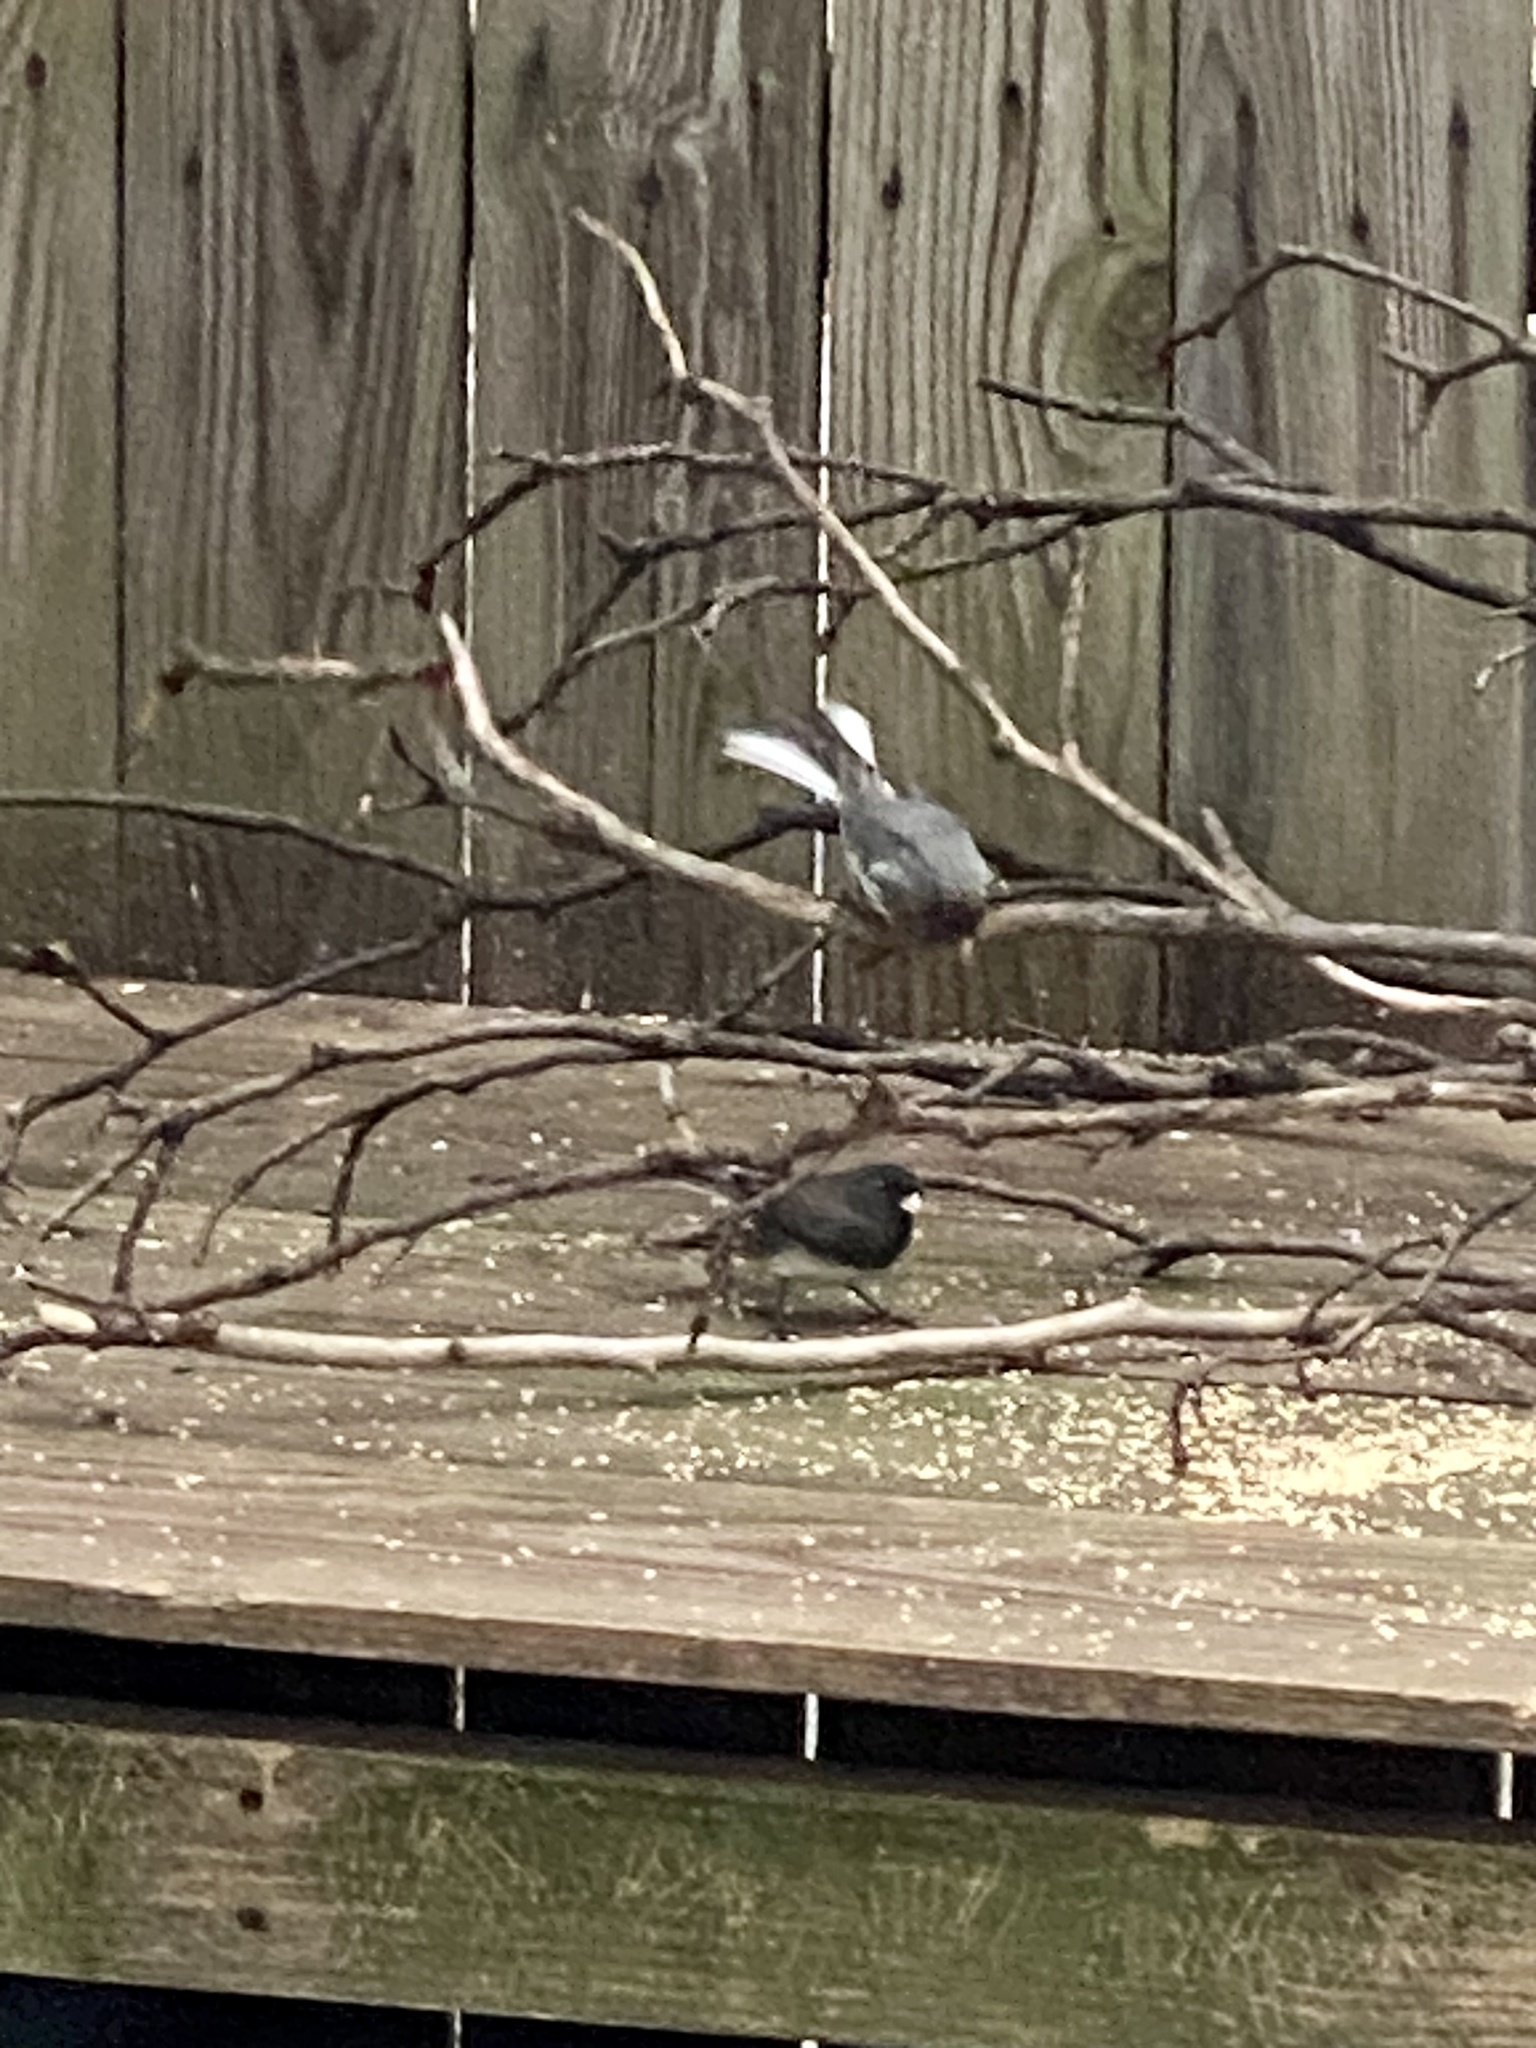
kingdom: Animalia
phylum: Chordata
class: Aves
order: Passeriformes
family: Passerellidae
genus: Junco
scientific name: Junco hyemalis
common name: Dark-eyed junco
